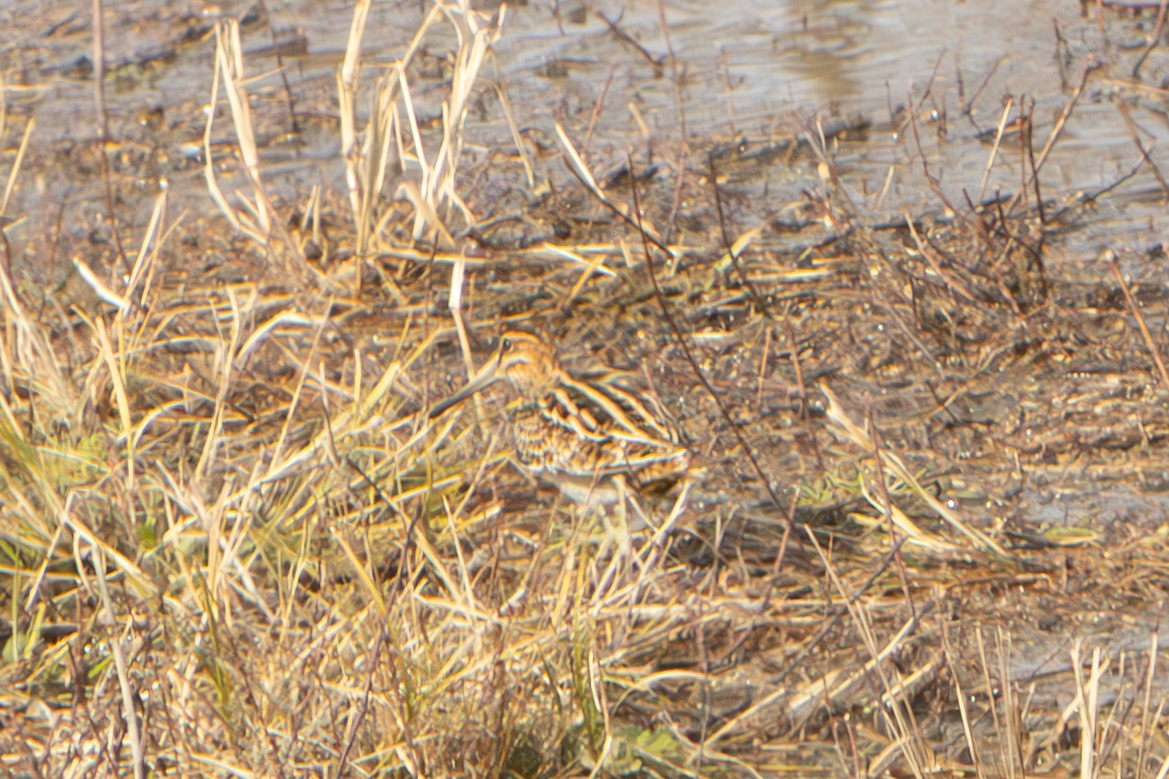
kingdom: Animalia
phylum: Chordata
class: Aves
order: Charadriiformes
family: Scolopacidae
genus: Gallinago
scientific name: Gallinago delicata
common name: Wilson's snipe
